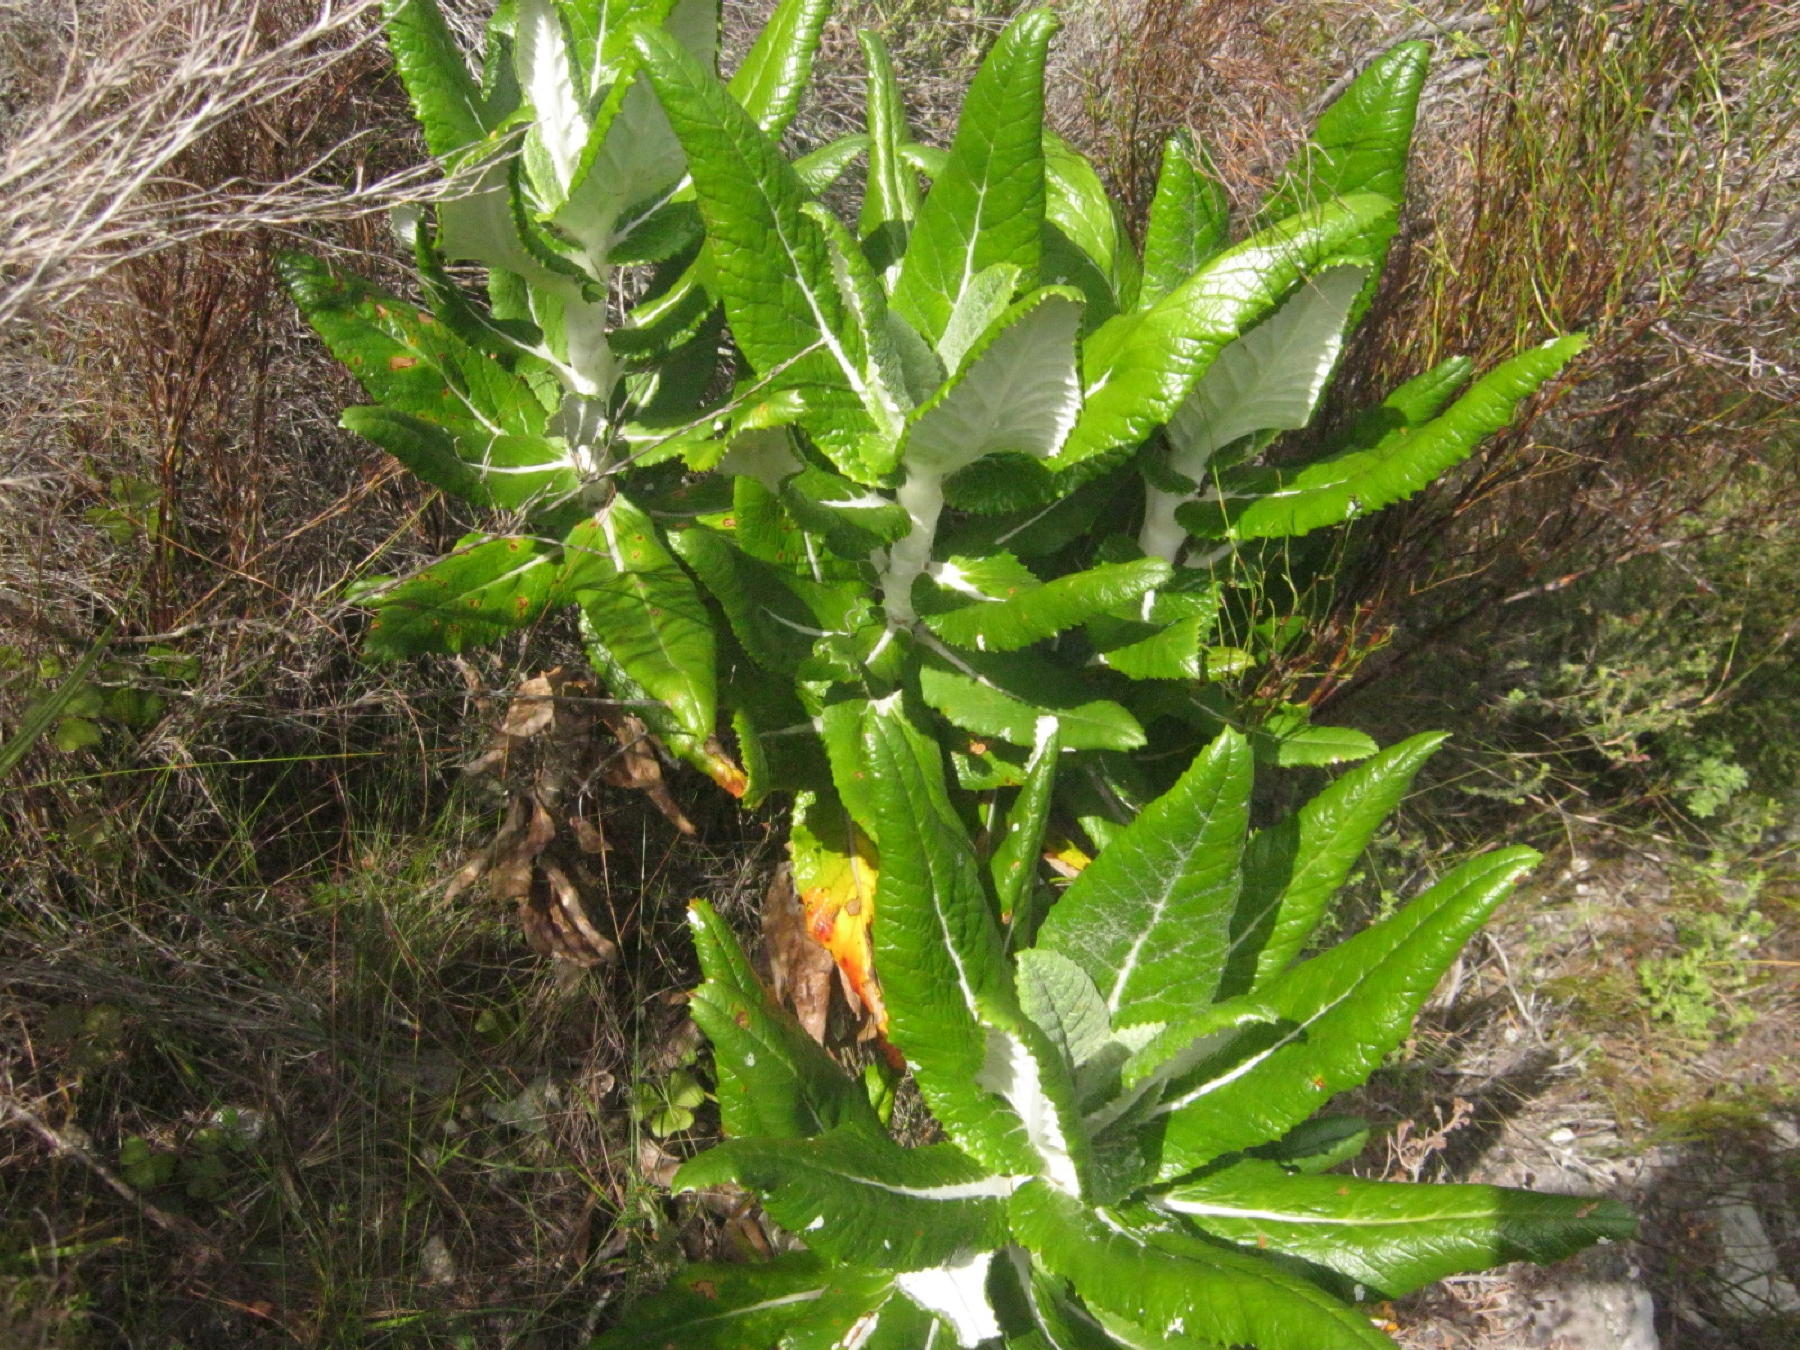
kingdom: Plantae
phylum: Tracheophyta
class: Magnoliopsida
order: Apiales
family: Apiaceae
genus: Hermas
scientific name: Hermas villosa
